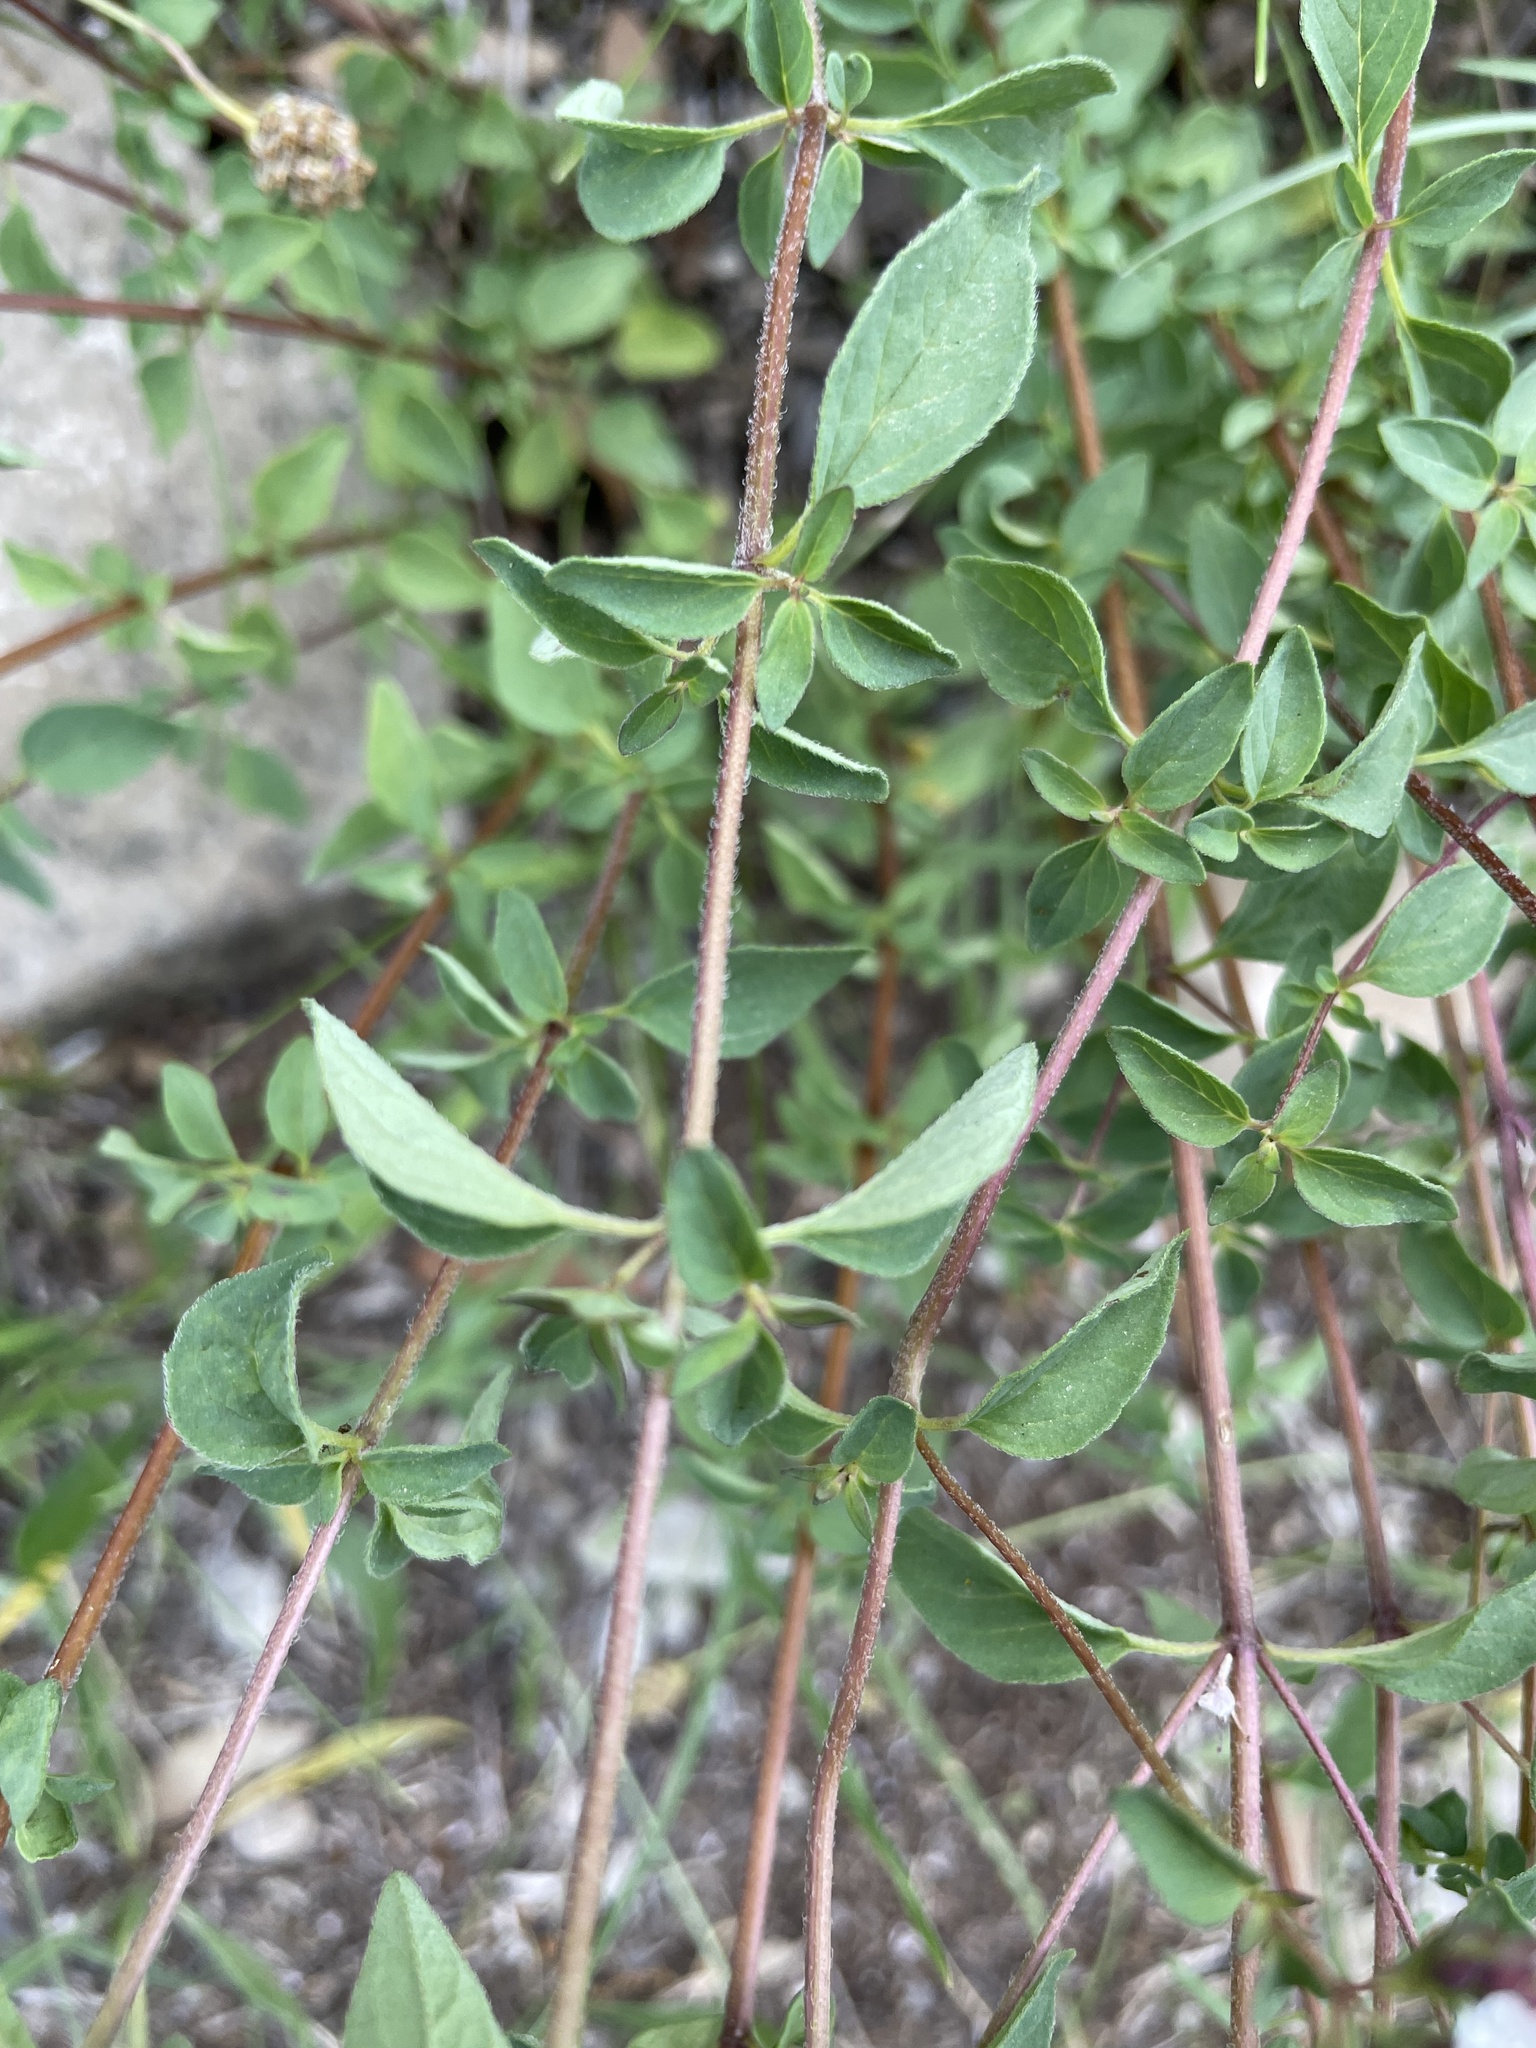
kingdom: Plantae
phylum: Tracheophyta
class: Magnoliopsida
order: Lamiales
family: Lamiaceae
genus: Origanum
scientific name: Origanum vulgare
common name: Wild marjoram
